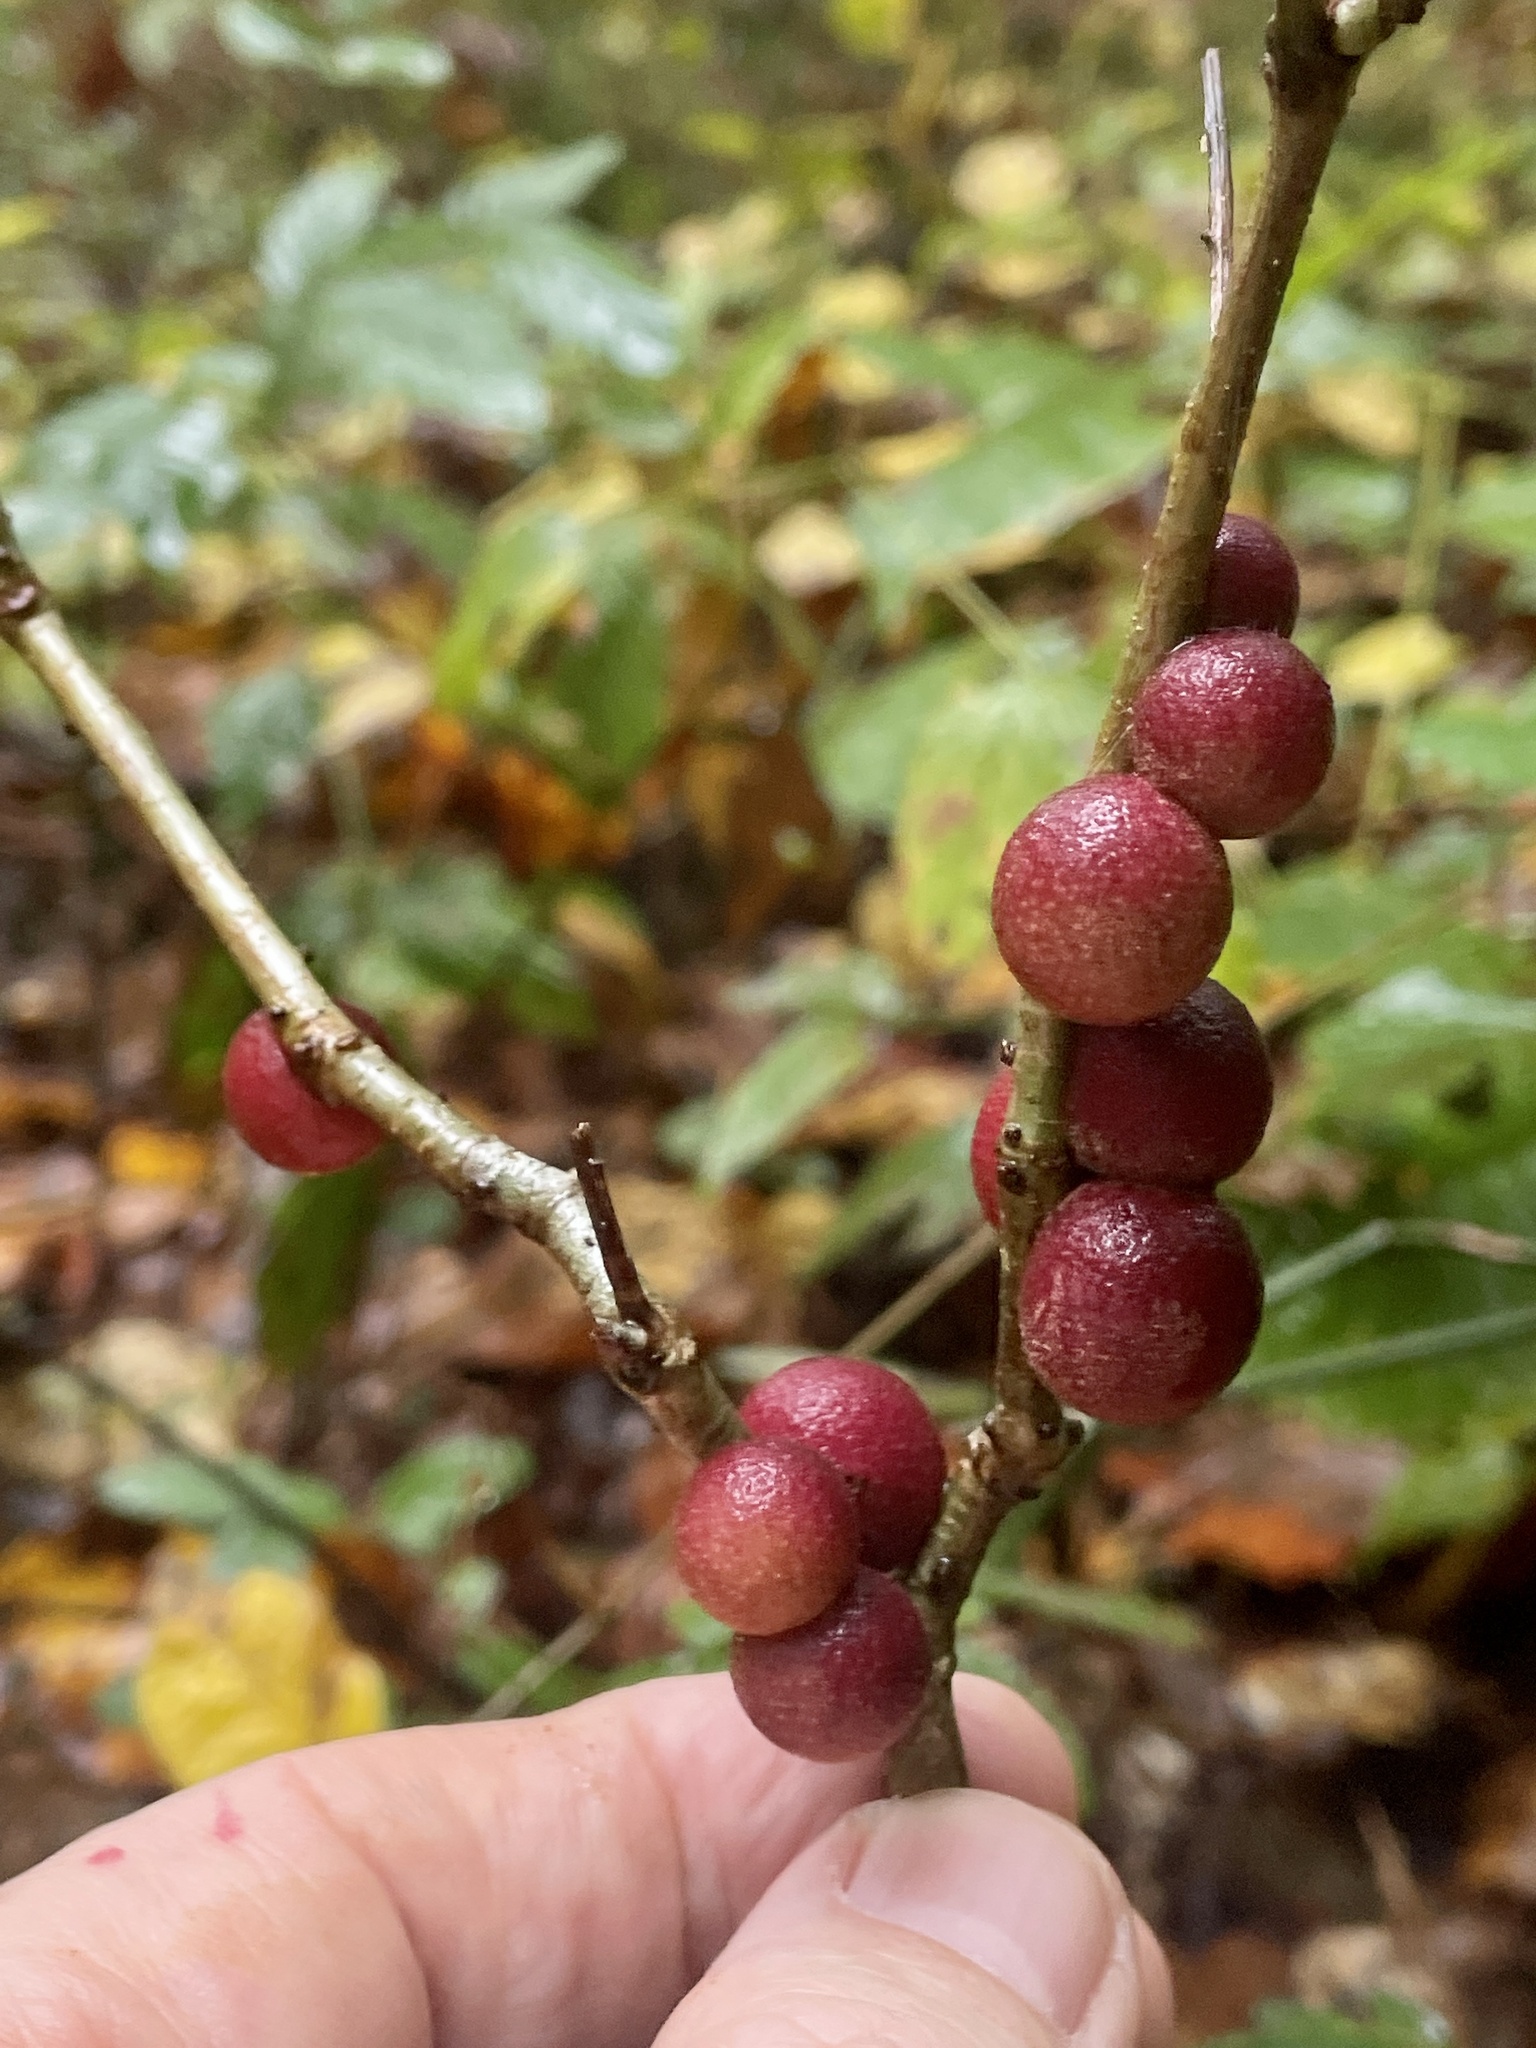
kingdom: Animalia
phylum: Arthropoda
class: Insecta
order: Hymenoptera
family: Cynipidae
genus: Disholcaspis
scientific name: Disholcaspis
